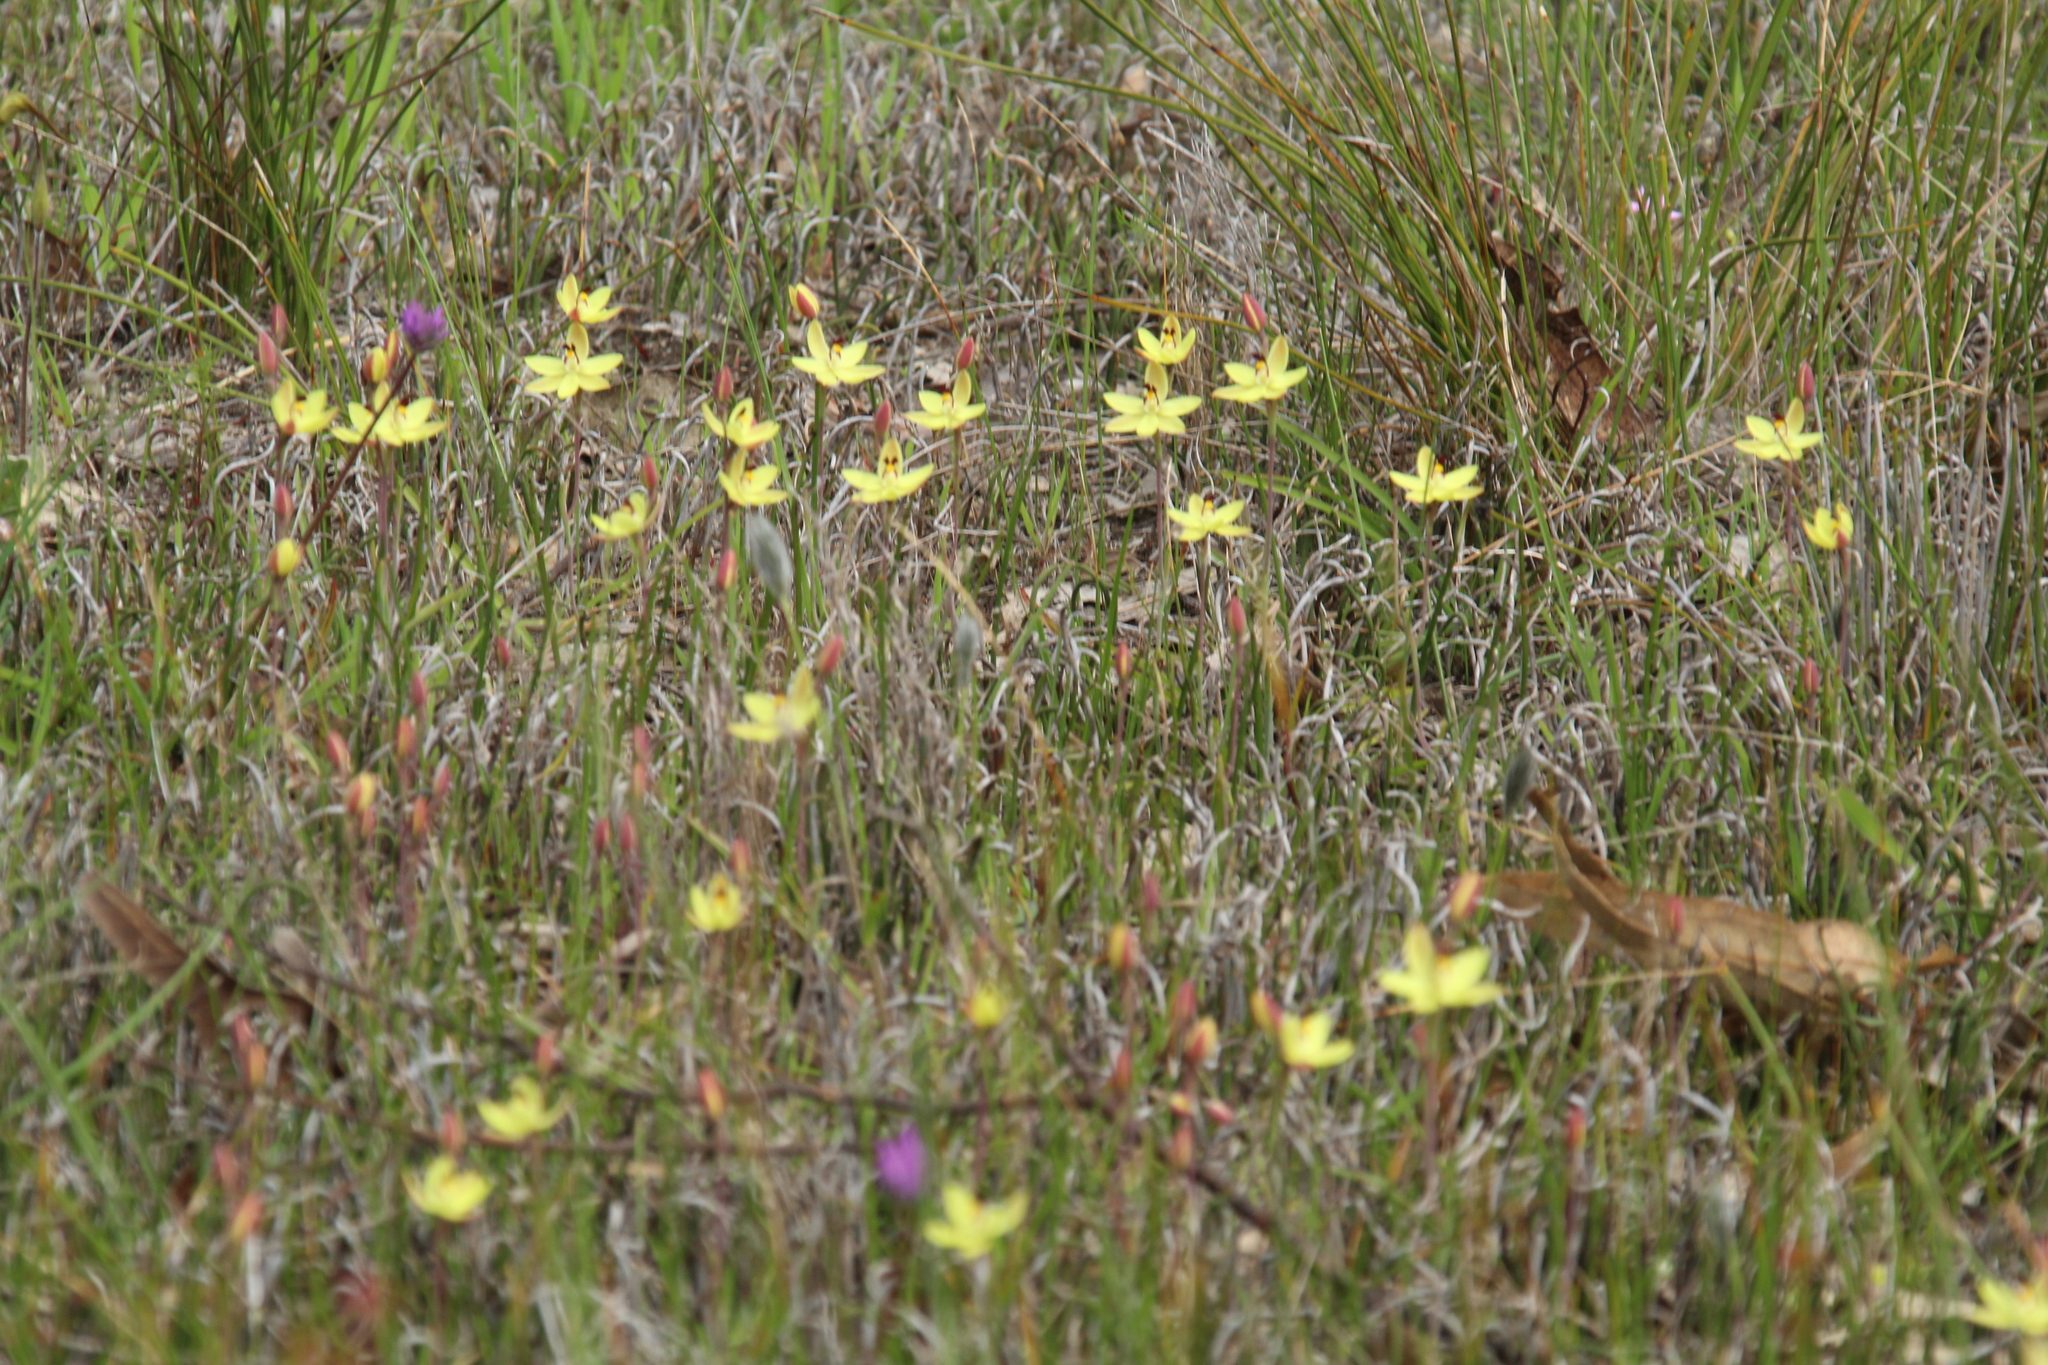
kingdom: Plantae
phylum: Tracheophyta
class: Liliopsida
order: Asparagales
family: Orchidaceae
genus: Thelymitra
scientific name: Thelymitra antennifera
